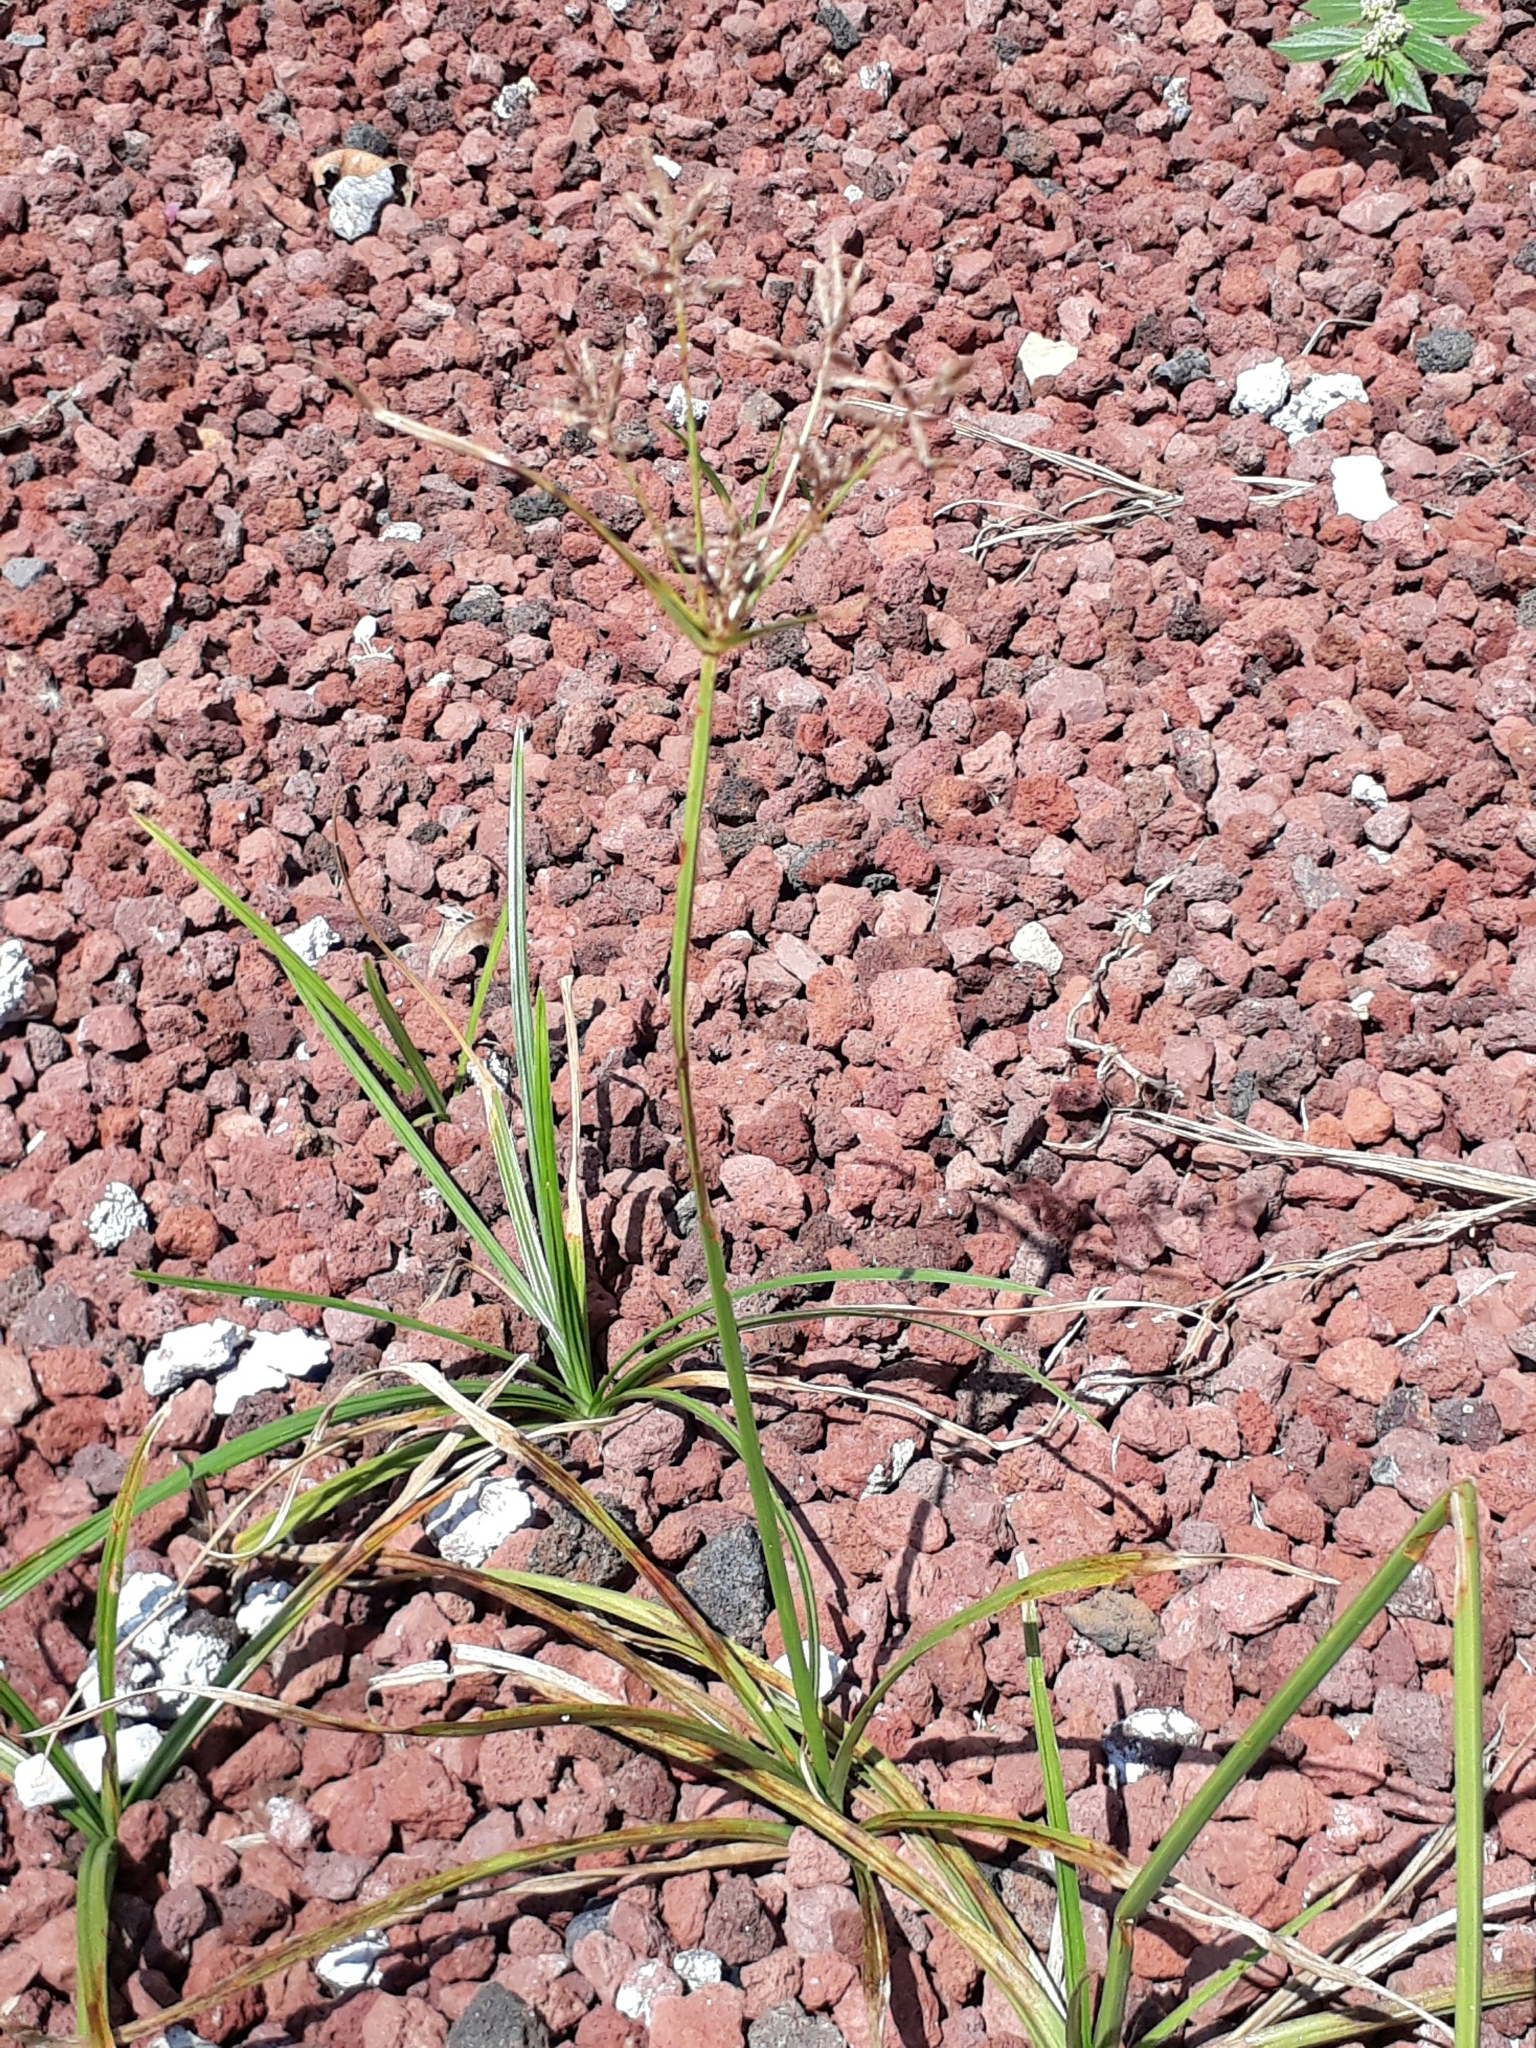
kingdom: Plantae
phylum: Tracheophyta
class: Liliopsida
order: Poales
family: Cyperaceae
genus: Cyperus
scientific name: Cyperus rotundus
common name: Nutgrass
